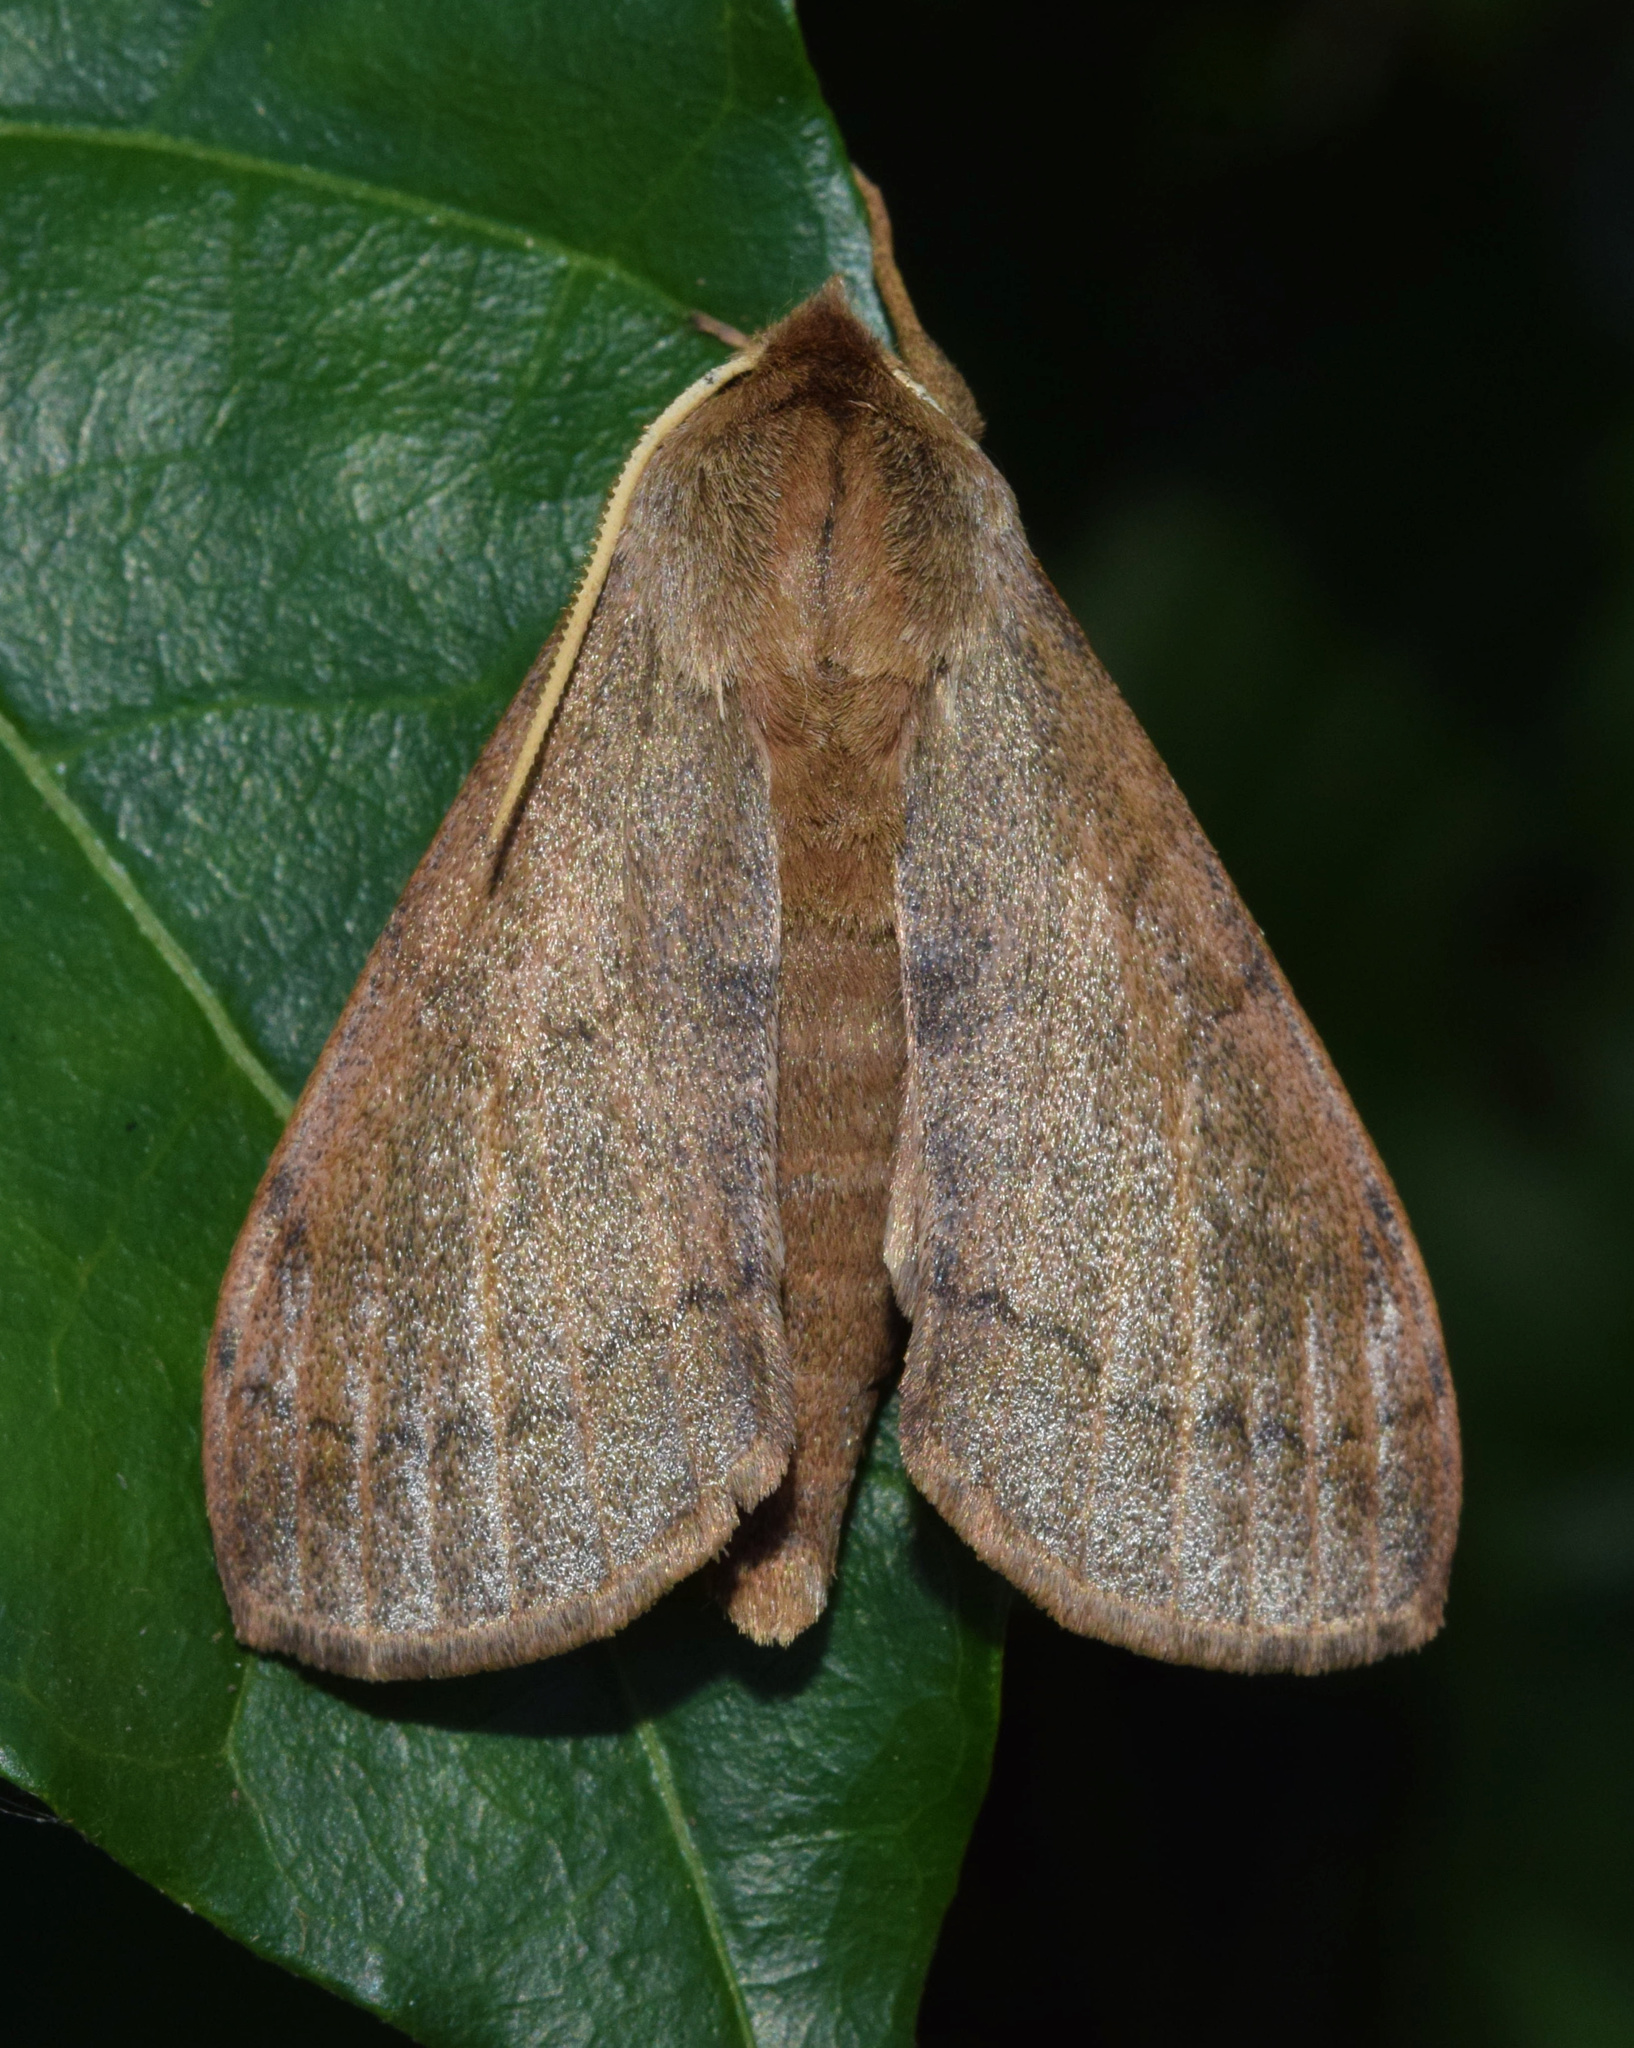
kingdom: Animalia
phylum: Arthropoda
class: Insecta
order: Lepidoptera
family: Sphingidae
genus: Pseudandriasa
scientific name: Pseudandriasa mutata
